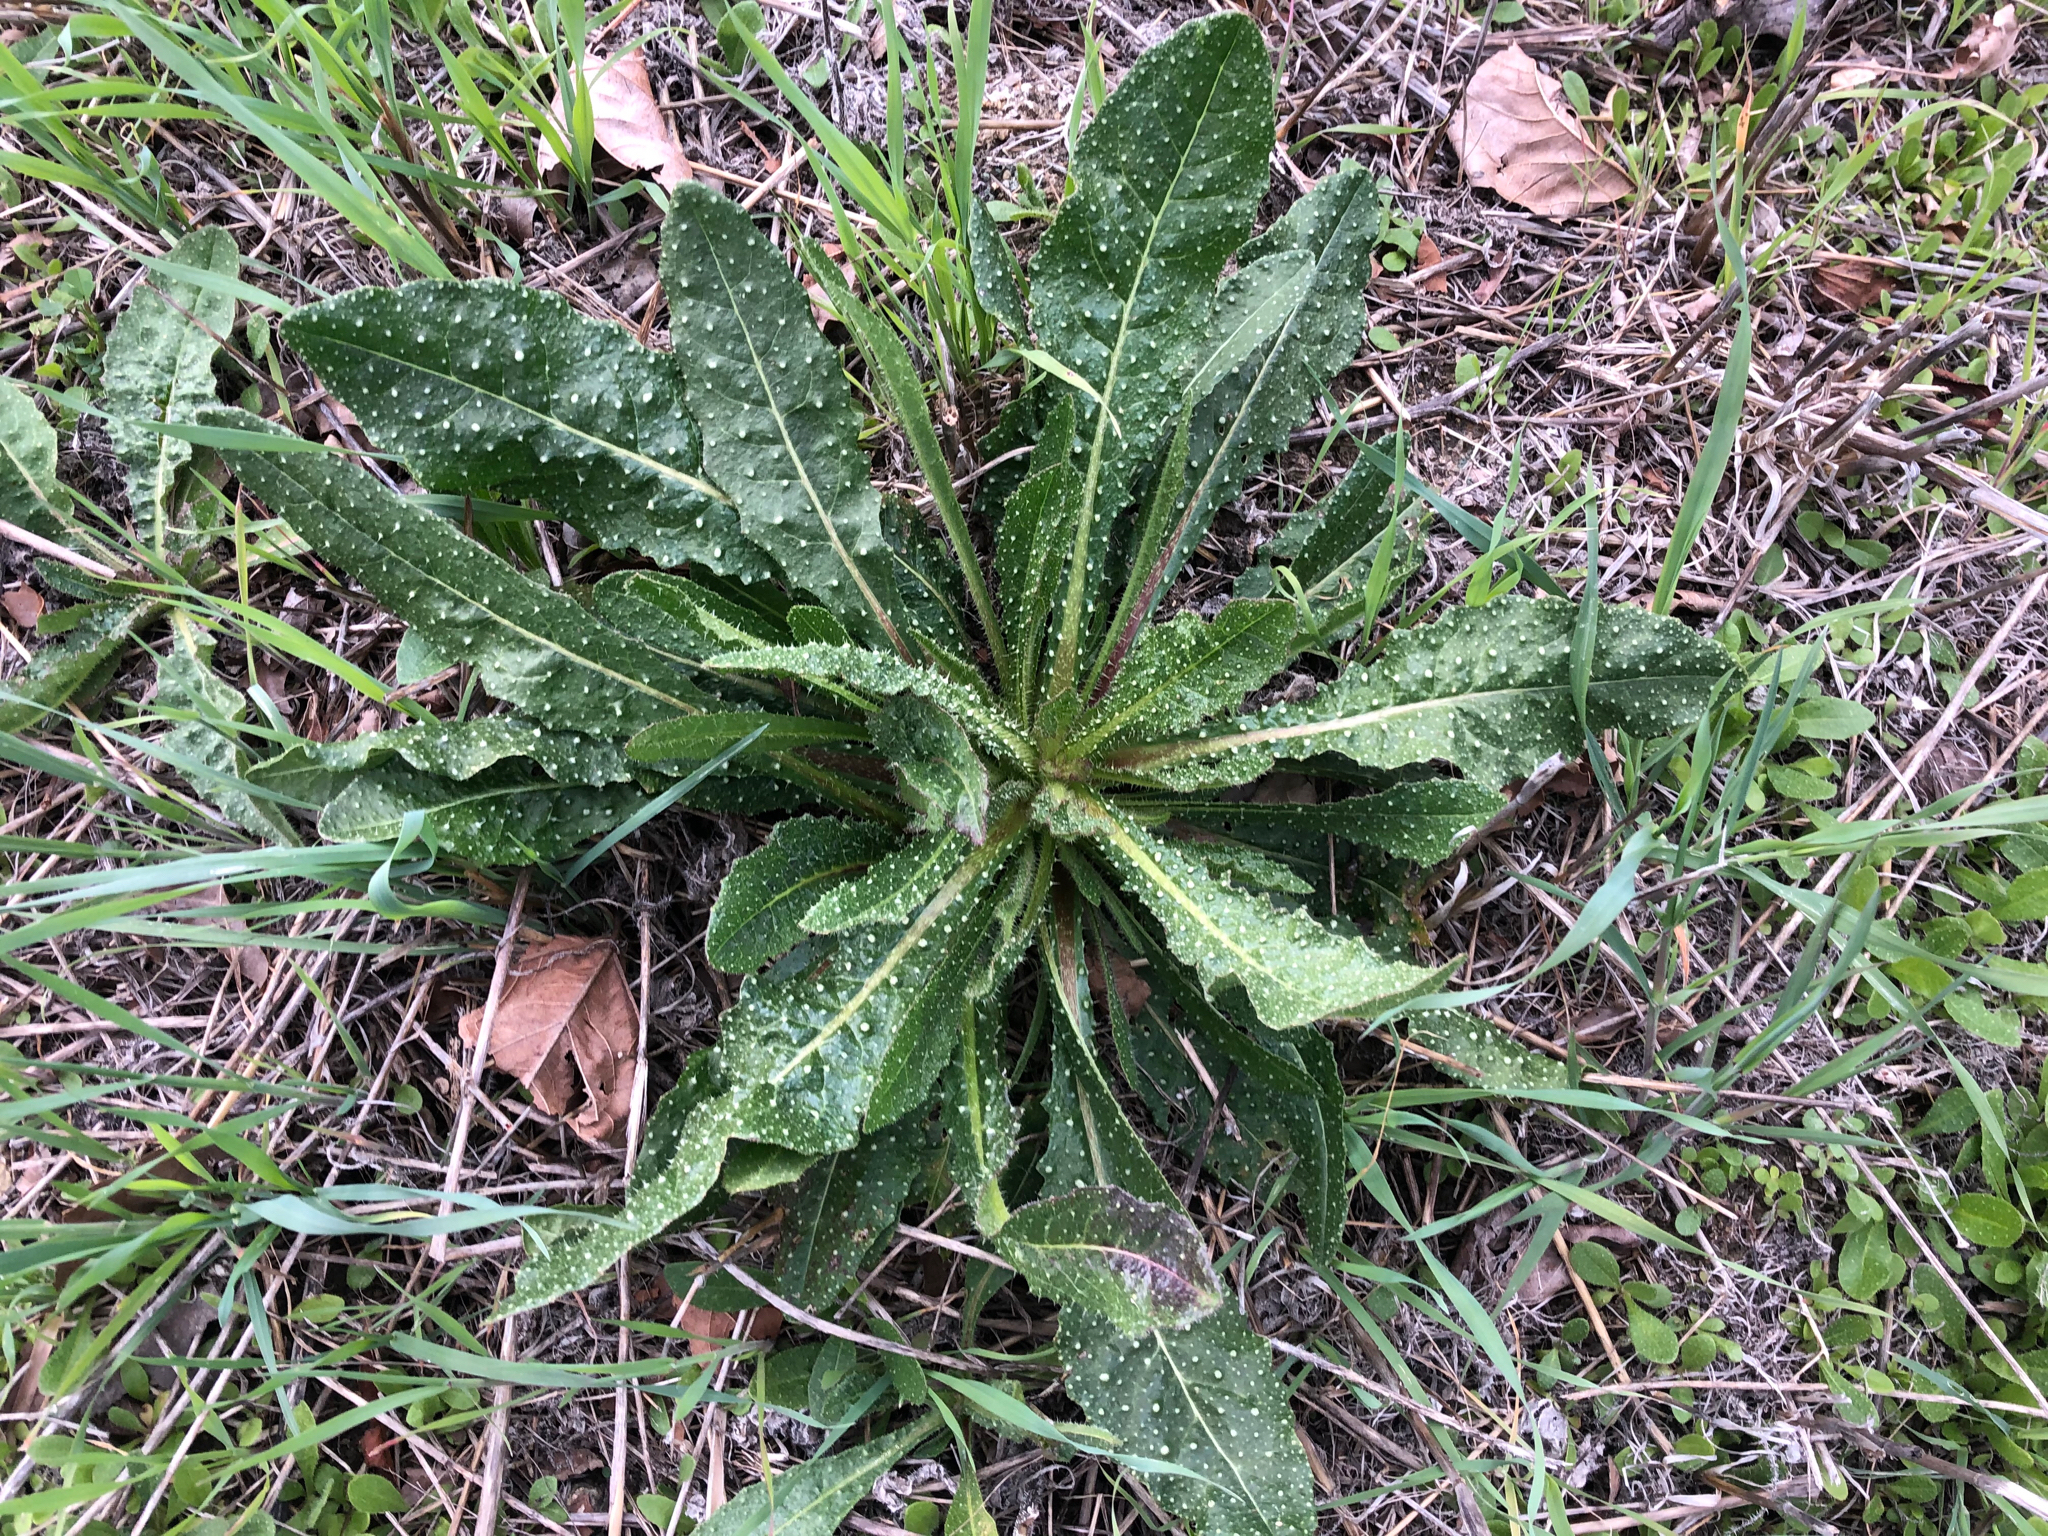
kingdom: Plantae
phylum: Tracheophyta
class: Magnoliopsida
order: Asterales
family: Asteraceae
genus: Helminthotheca
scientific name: Helminthotheca echioides
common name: Ox-tongue
